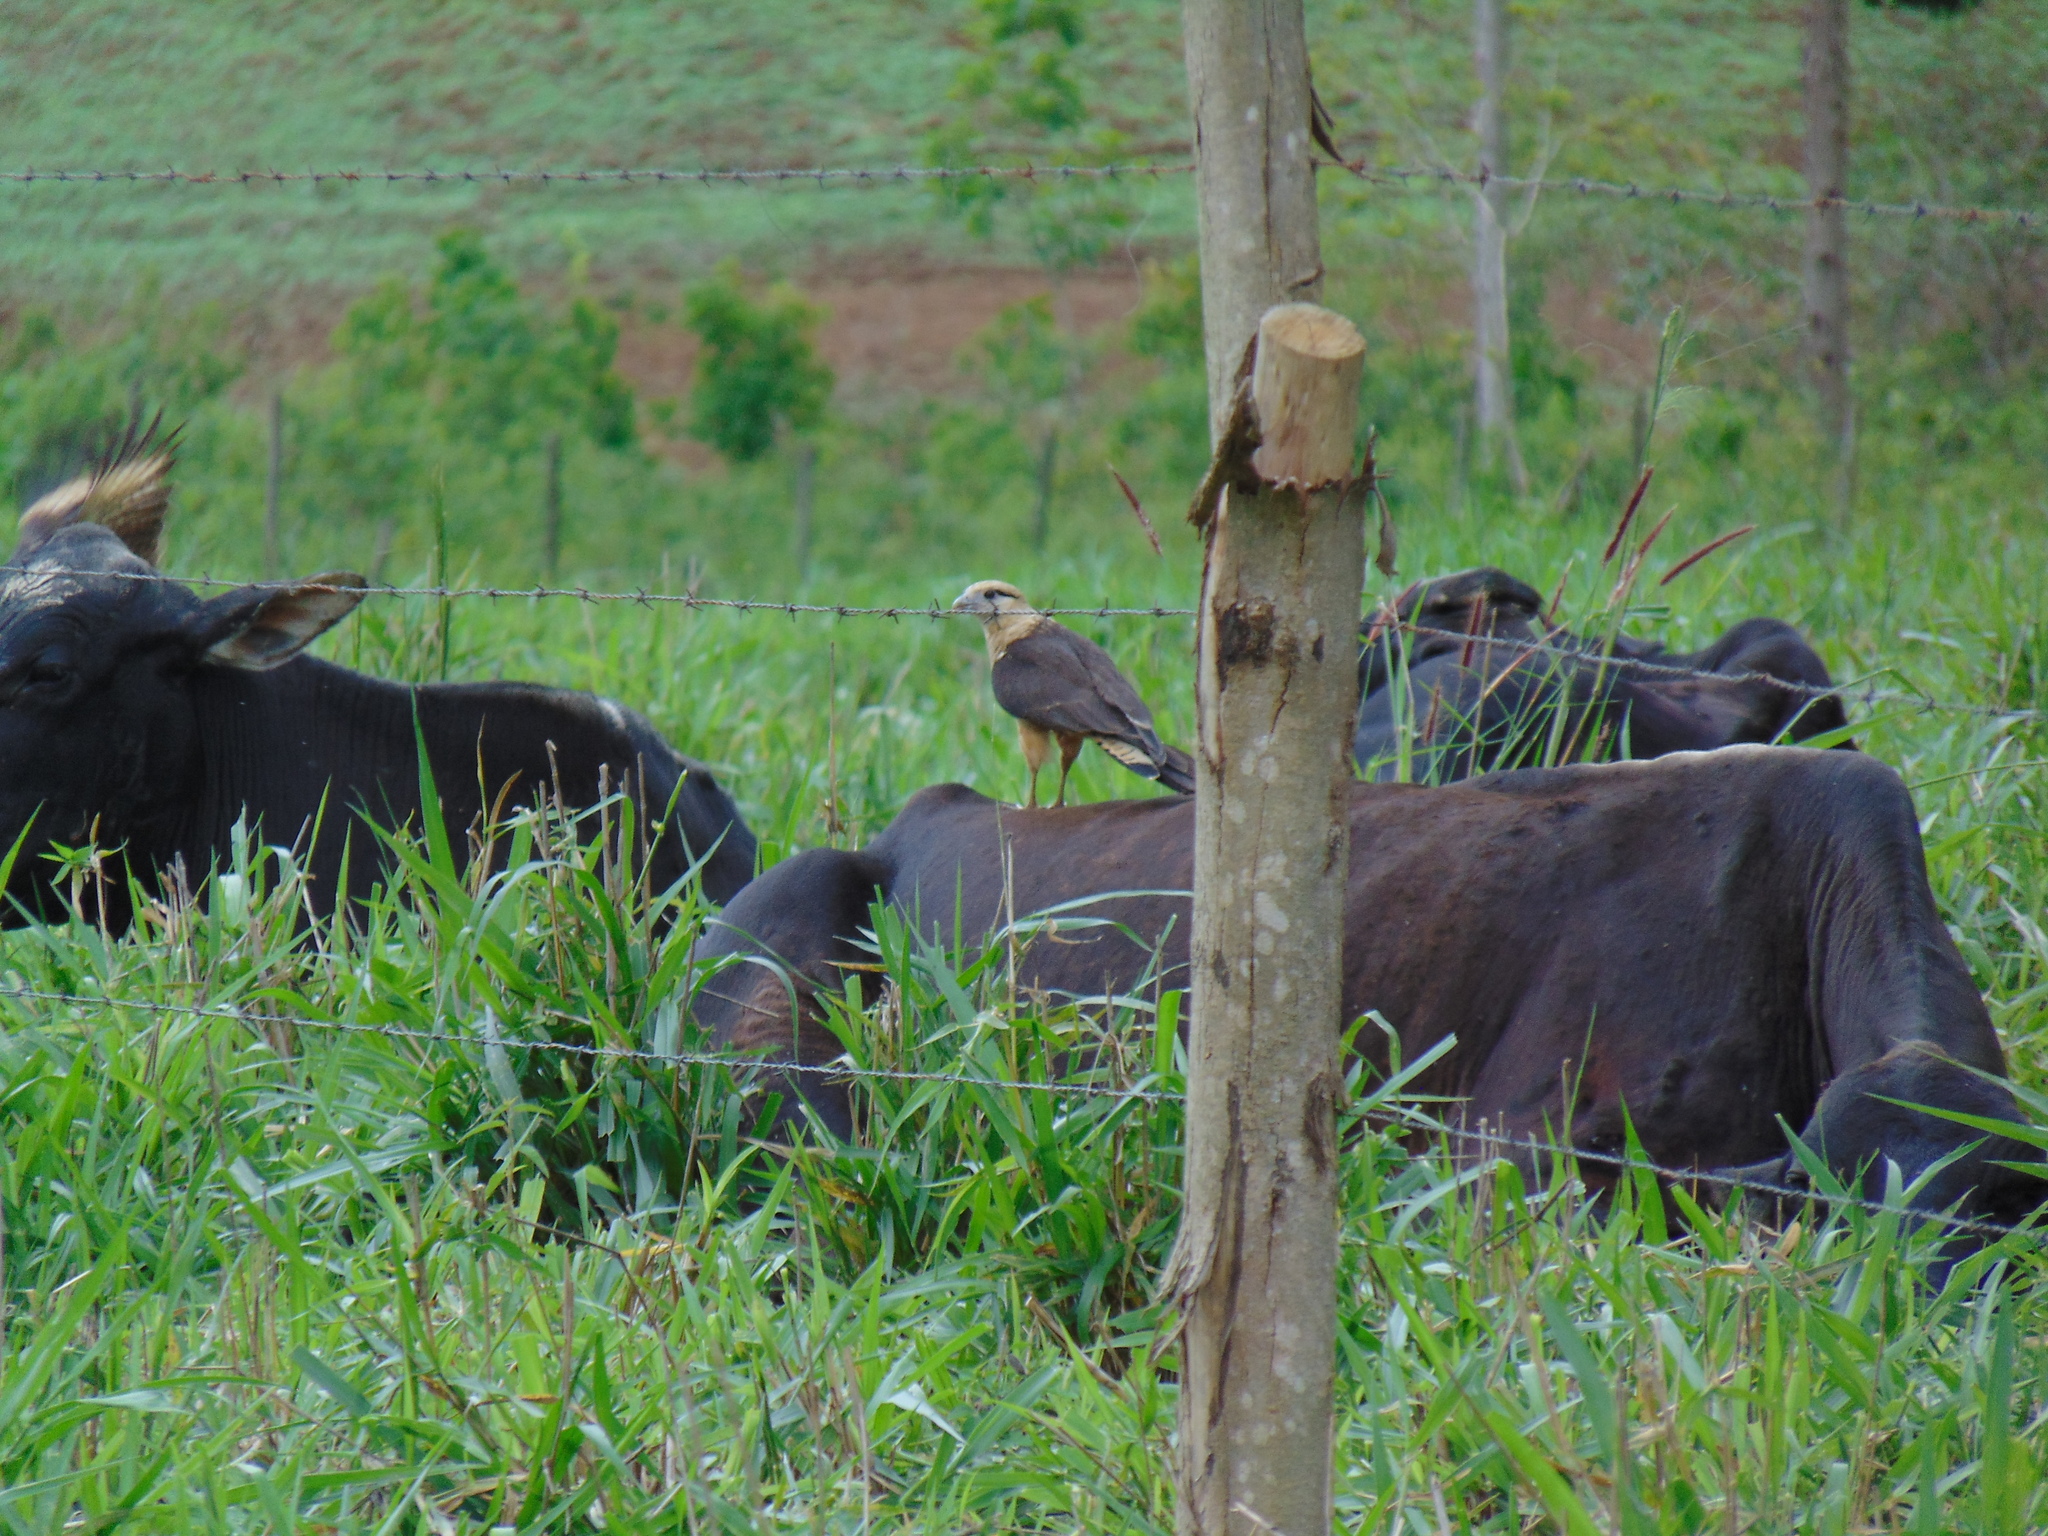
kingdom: Animalia
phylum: Chordata
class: Aves
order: Falconiformes
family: Falconidae
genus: Daptrius
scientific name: Daptrius
